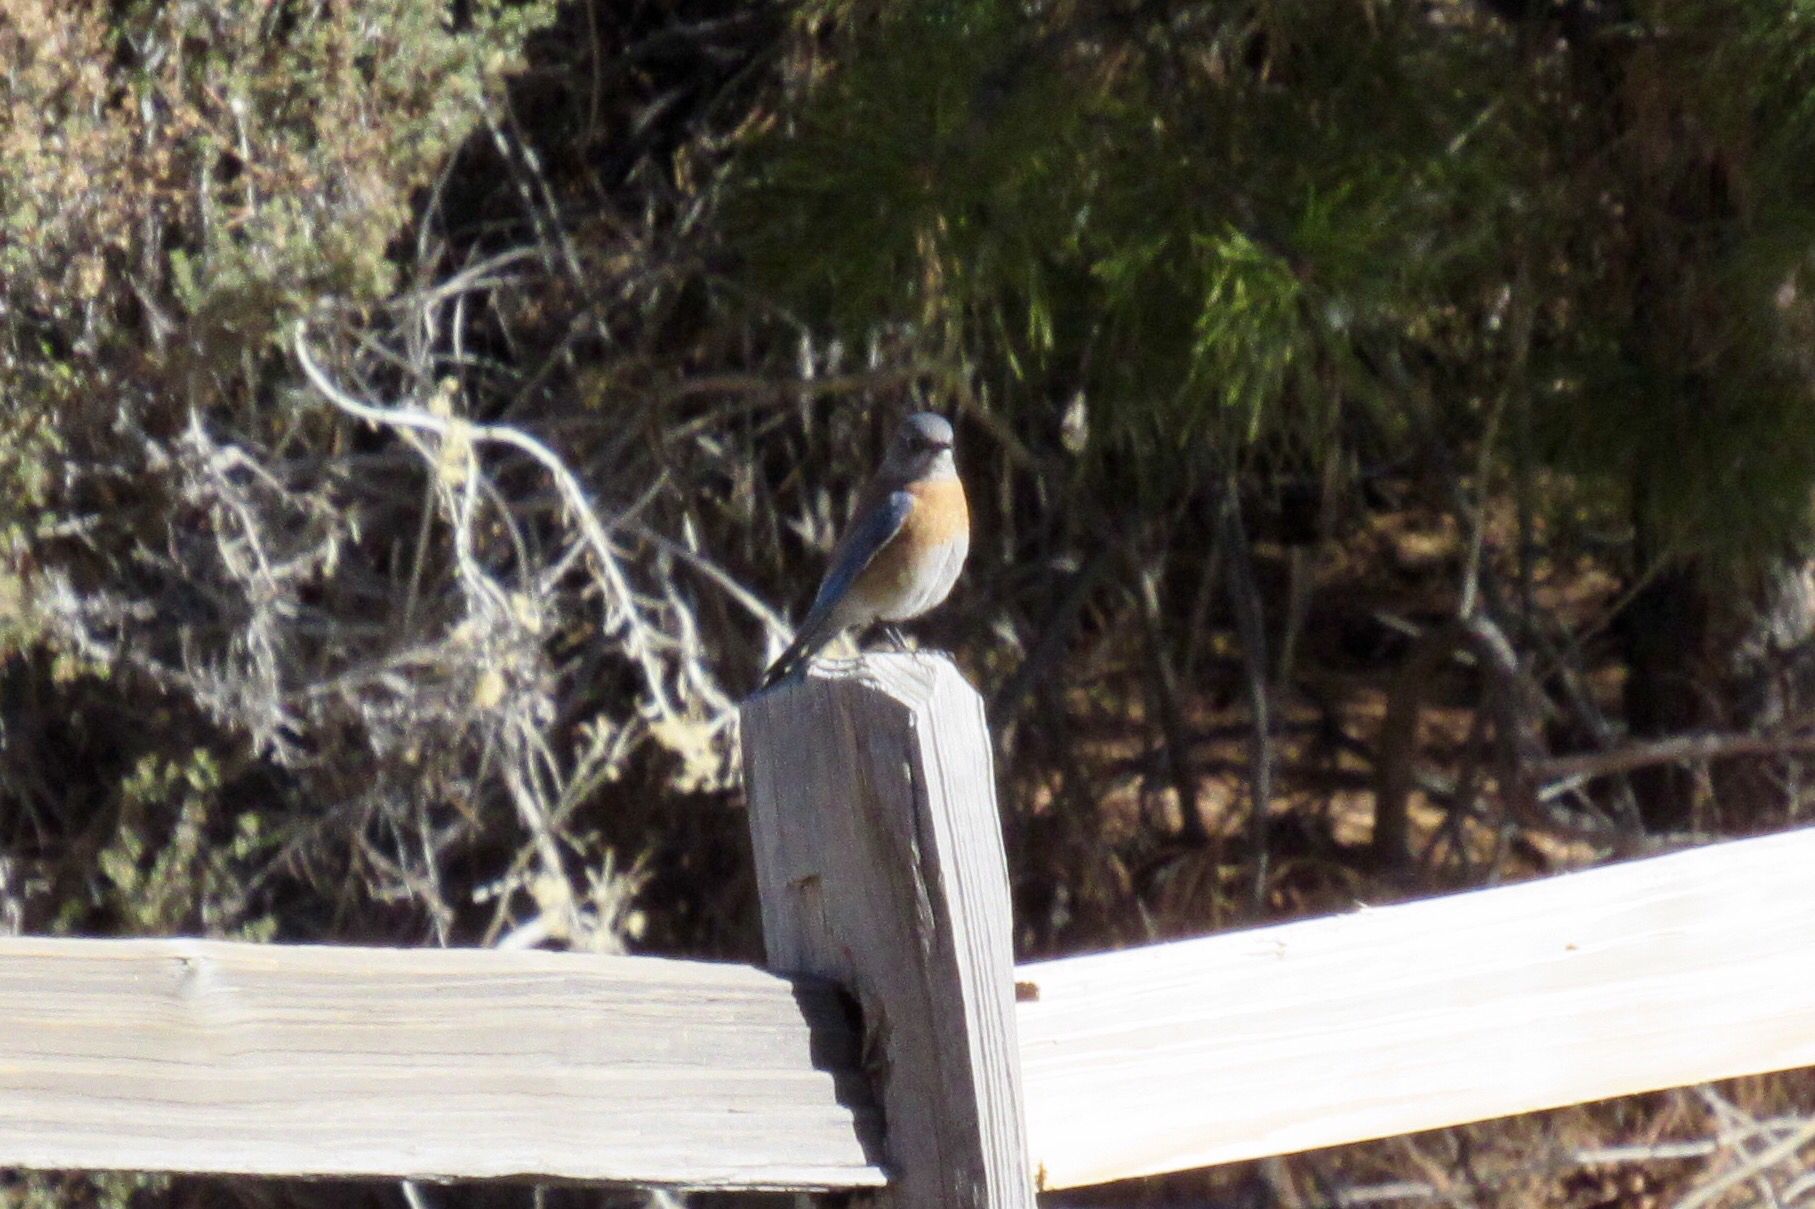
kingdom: Animalia
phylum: Chordata
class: Aves
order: Passeriformes
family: Turdidae
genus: Sialia
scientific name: Sialia mexicana
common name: Western bluebird
